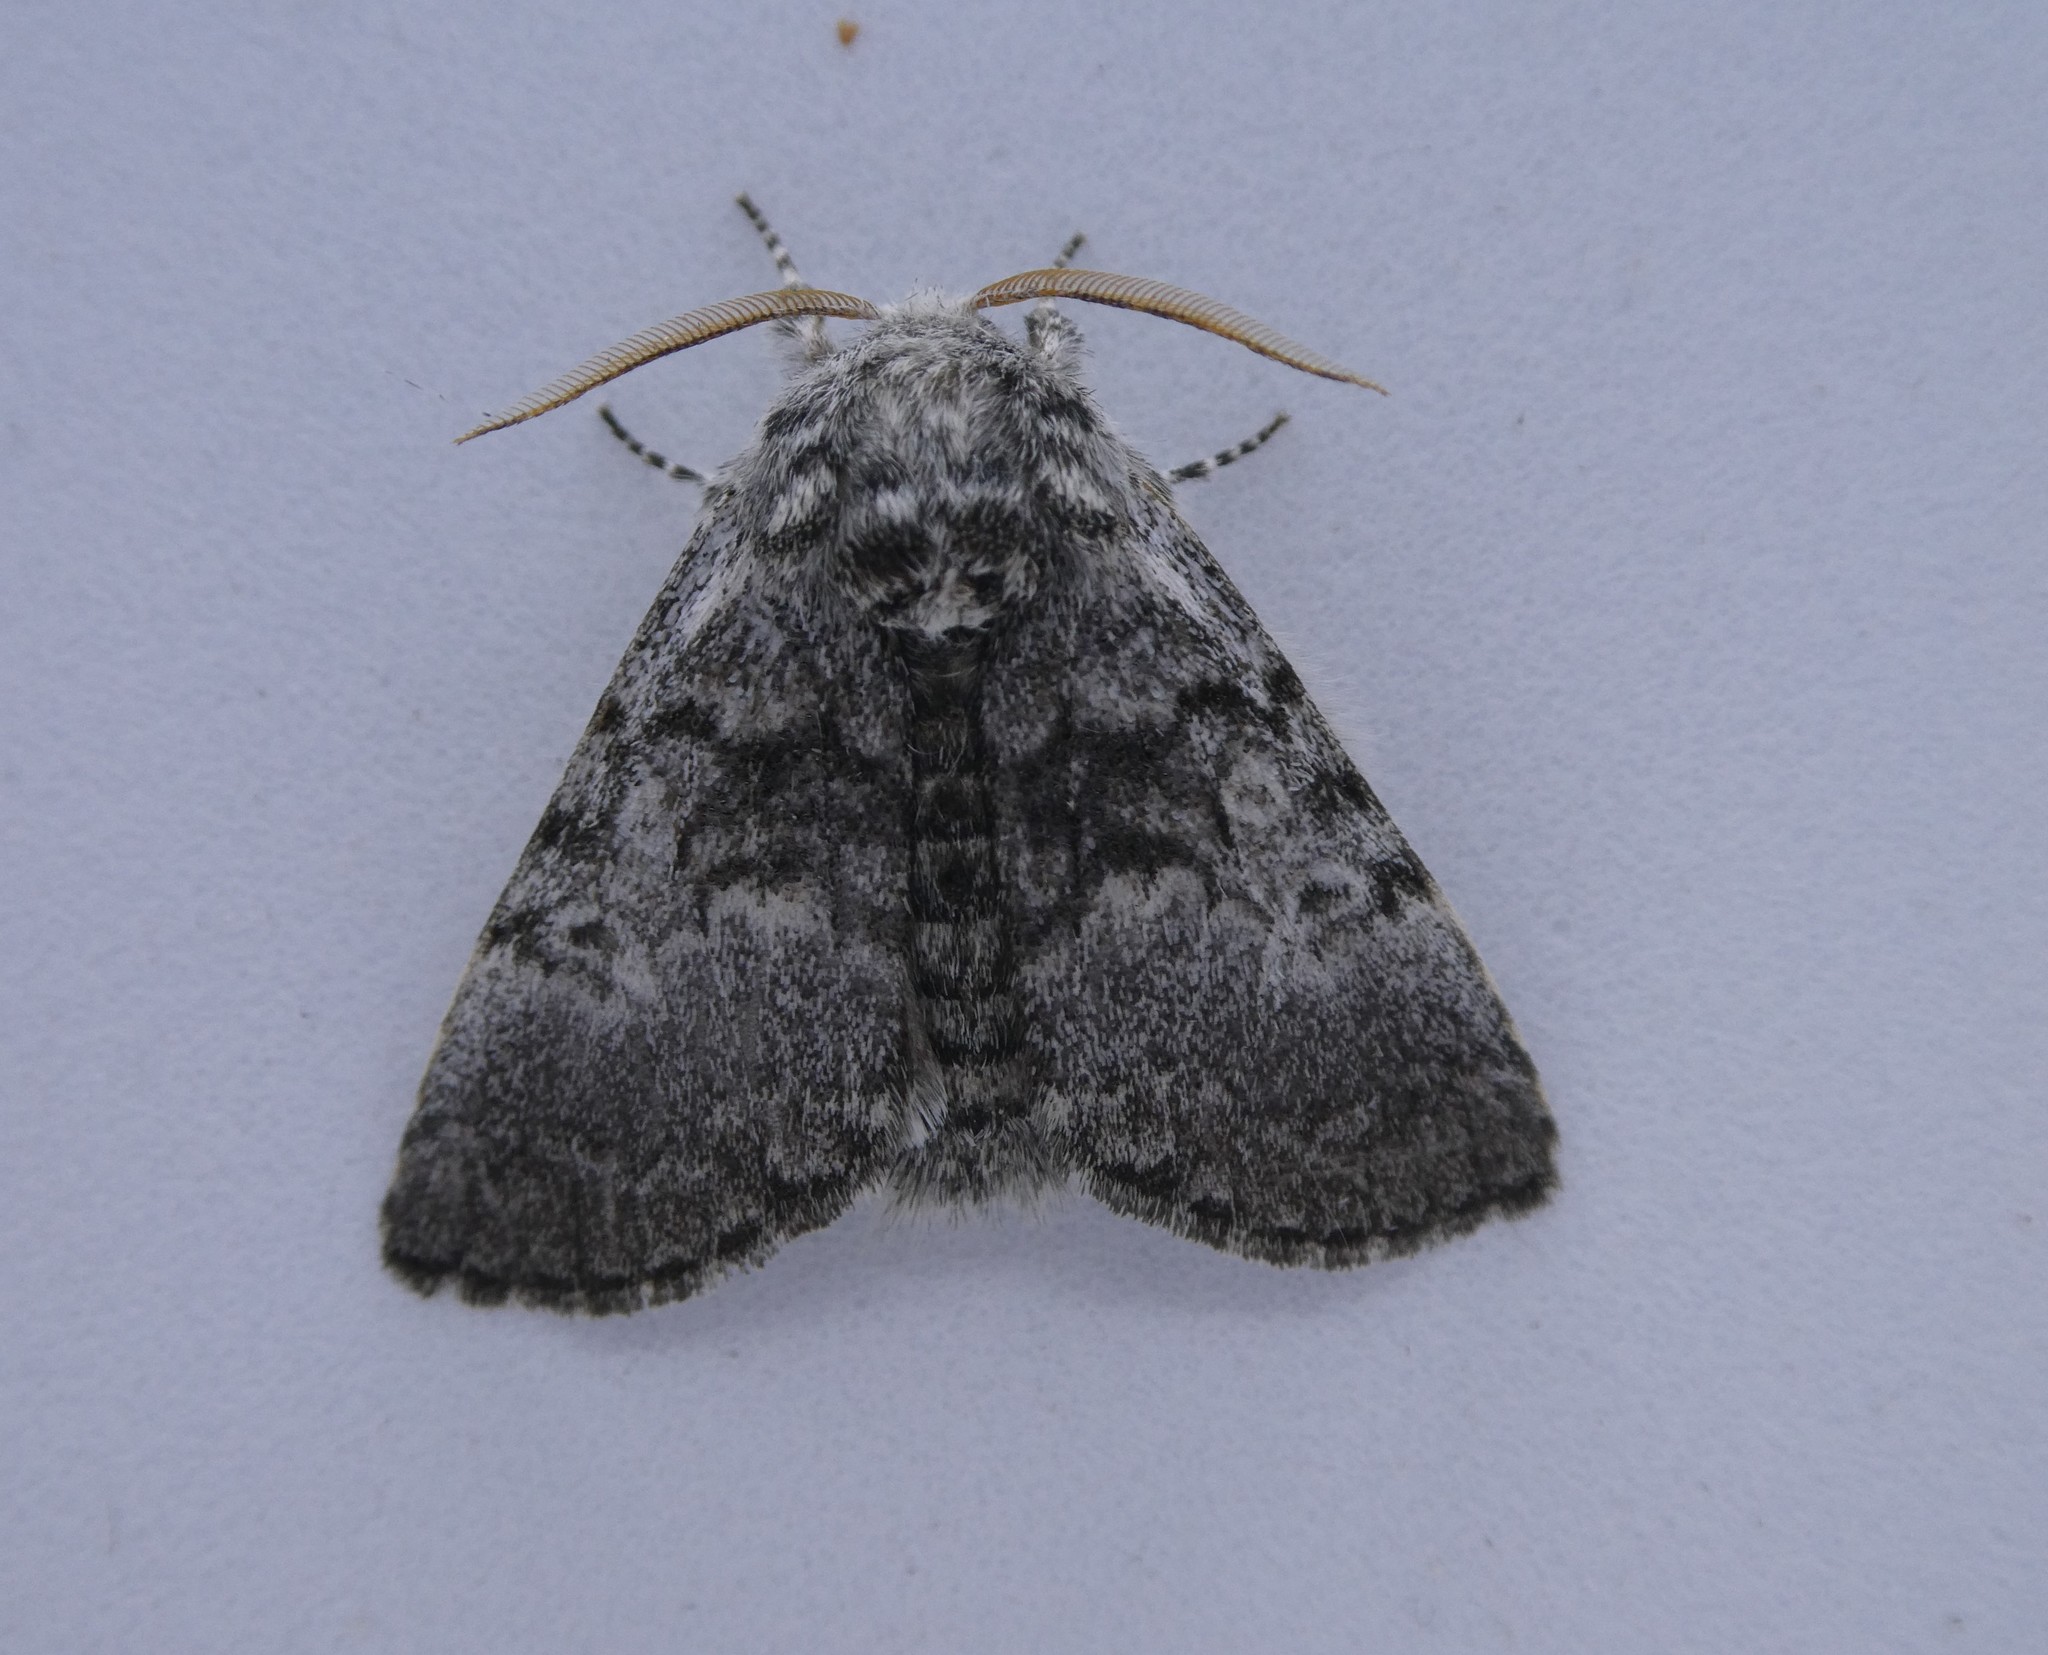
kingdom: Animalia
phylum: Arthropoda
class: Insecta
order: Lepidoptera
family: Noctuidae
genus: Colocasia
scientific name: Colocasia propinquilinea
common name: Close-banded demas
